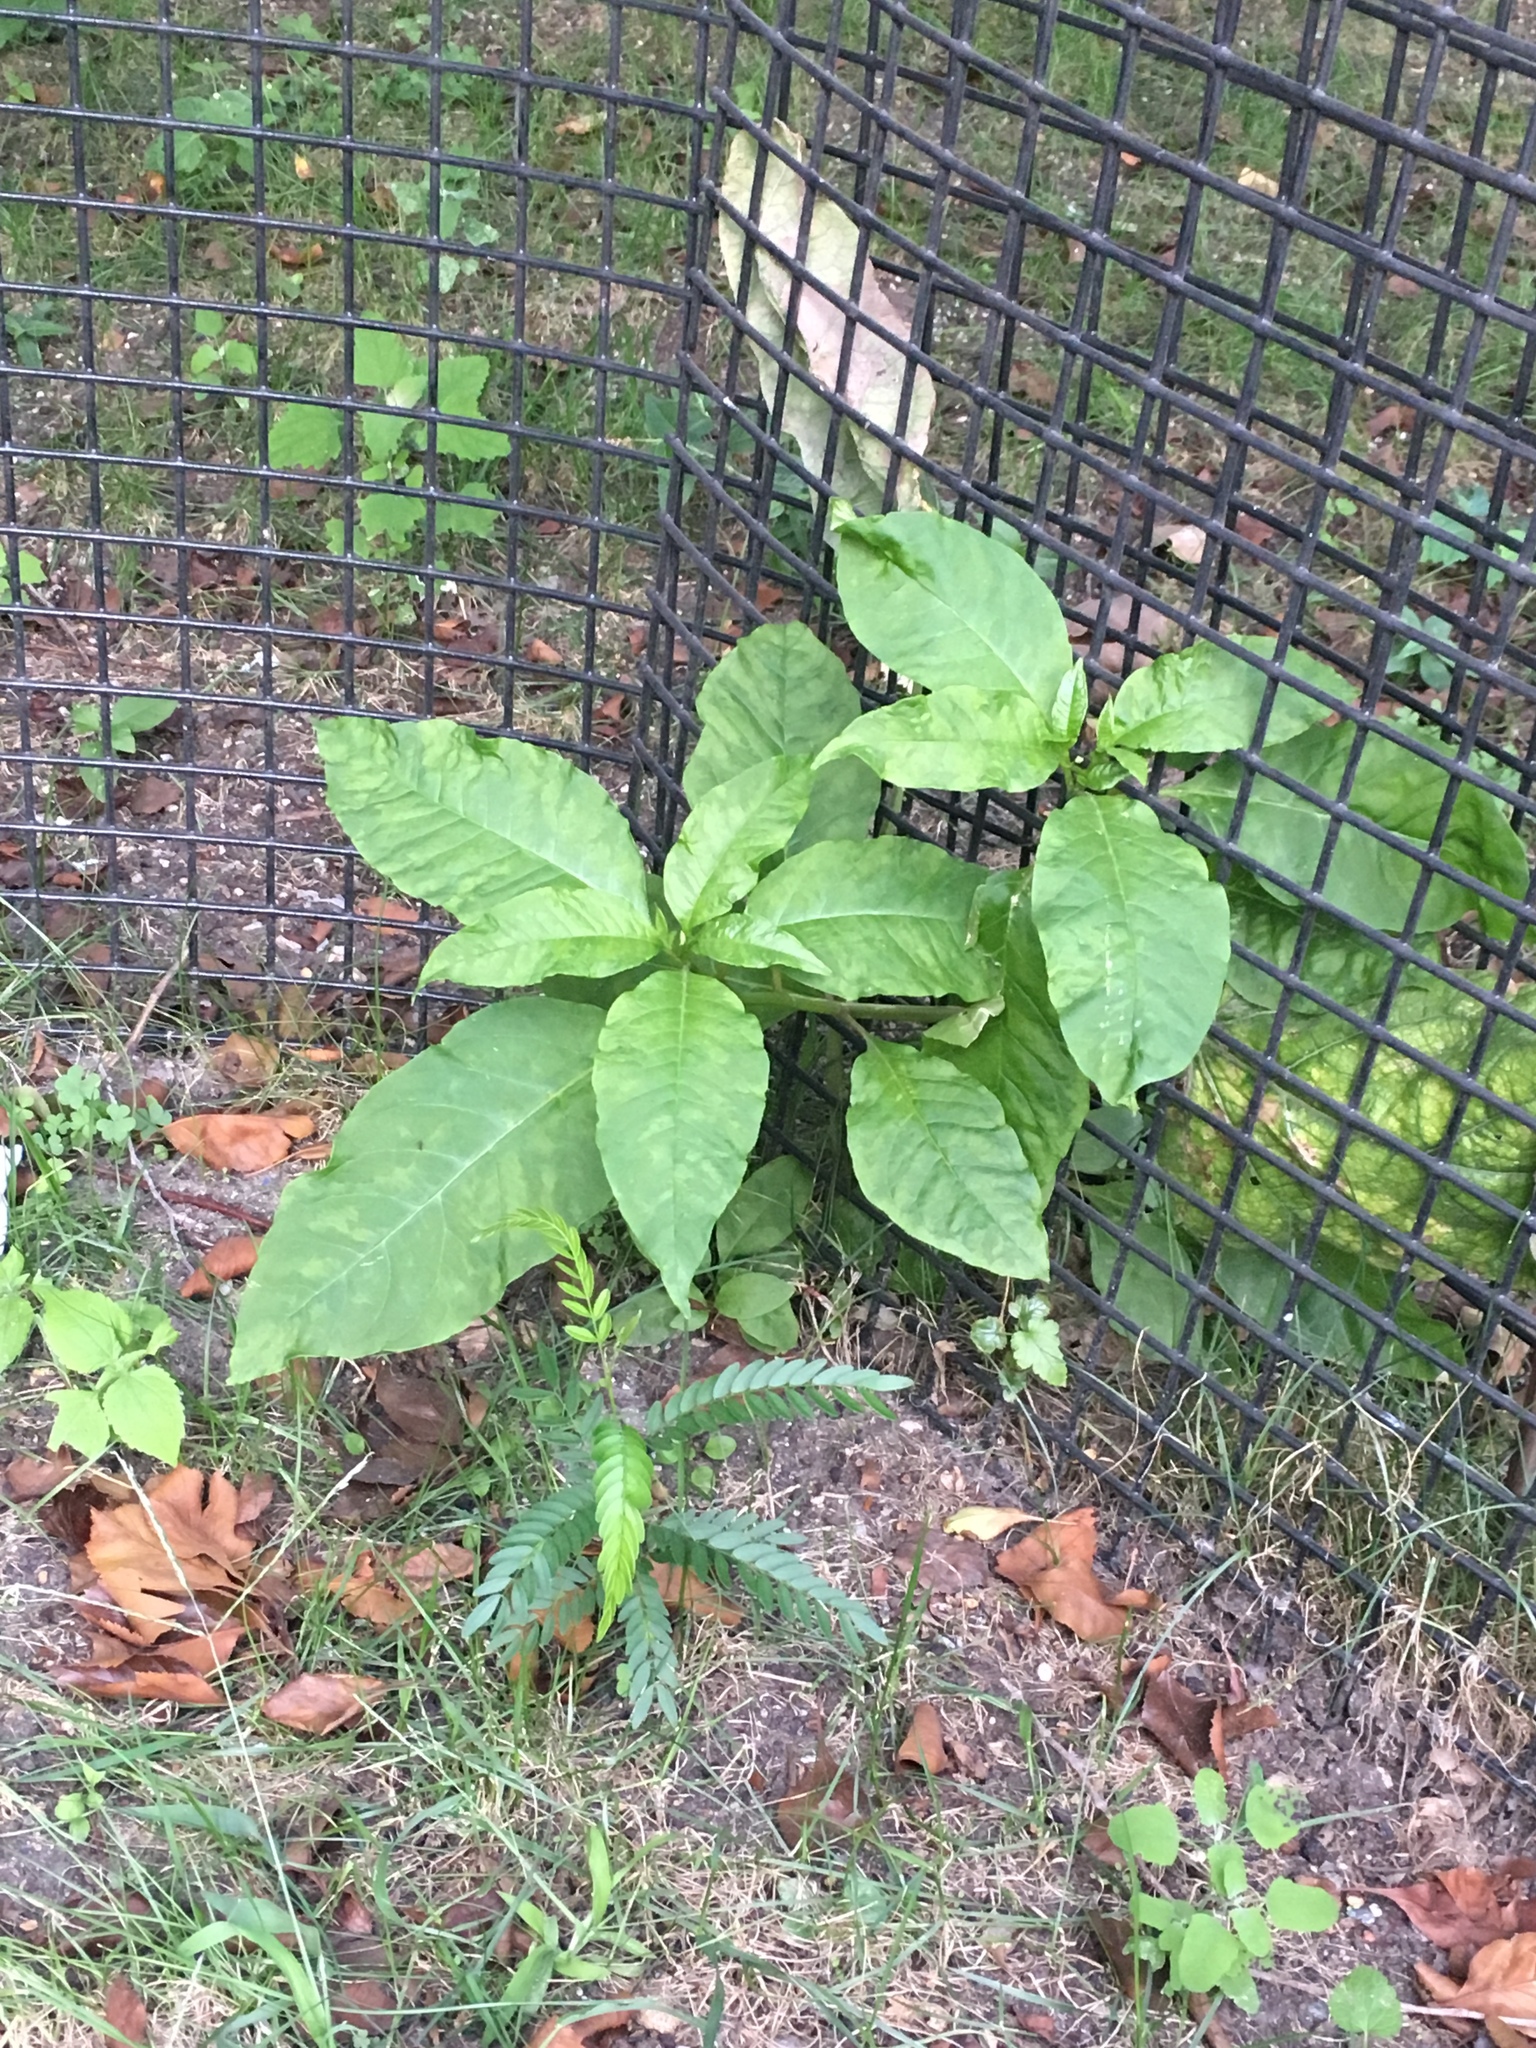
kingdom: Plantae
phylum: Tracheophyta
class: Magnoliopsida
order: Caryophyllales
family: Phytolaccaceae
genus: Phytolacca
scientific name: Phytolacca americana
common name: American pokeweed
